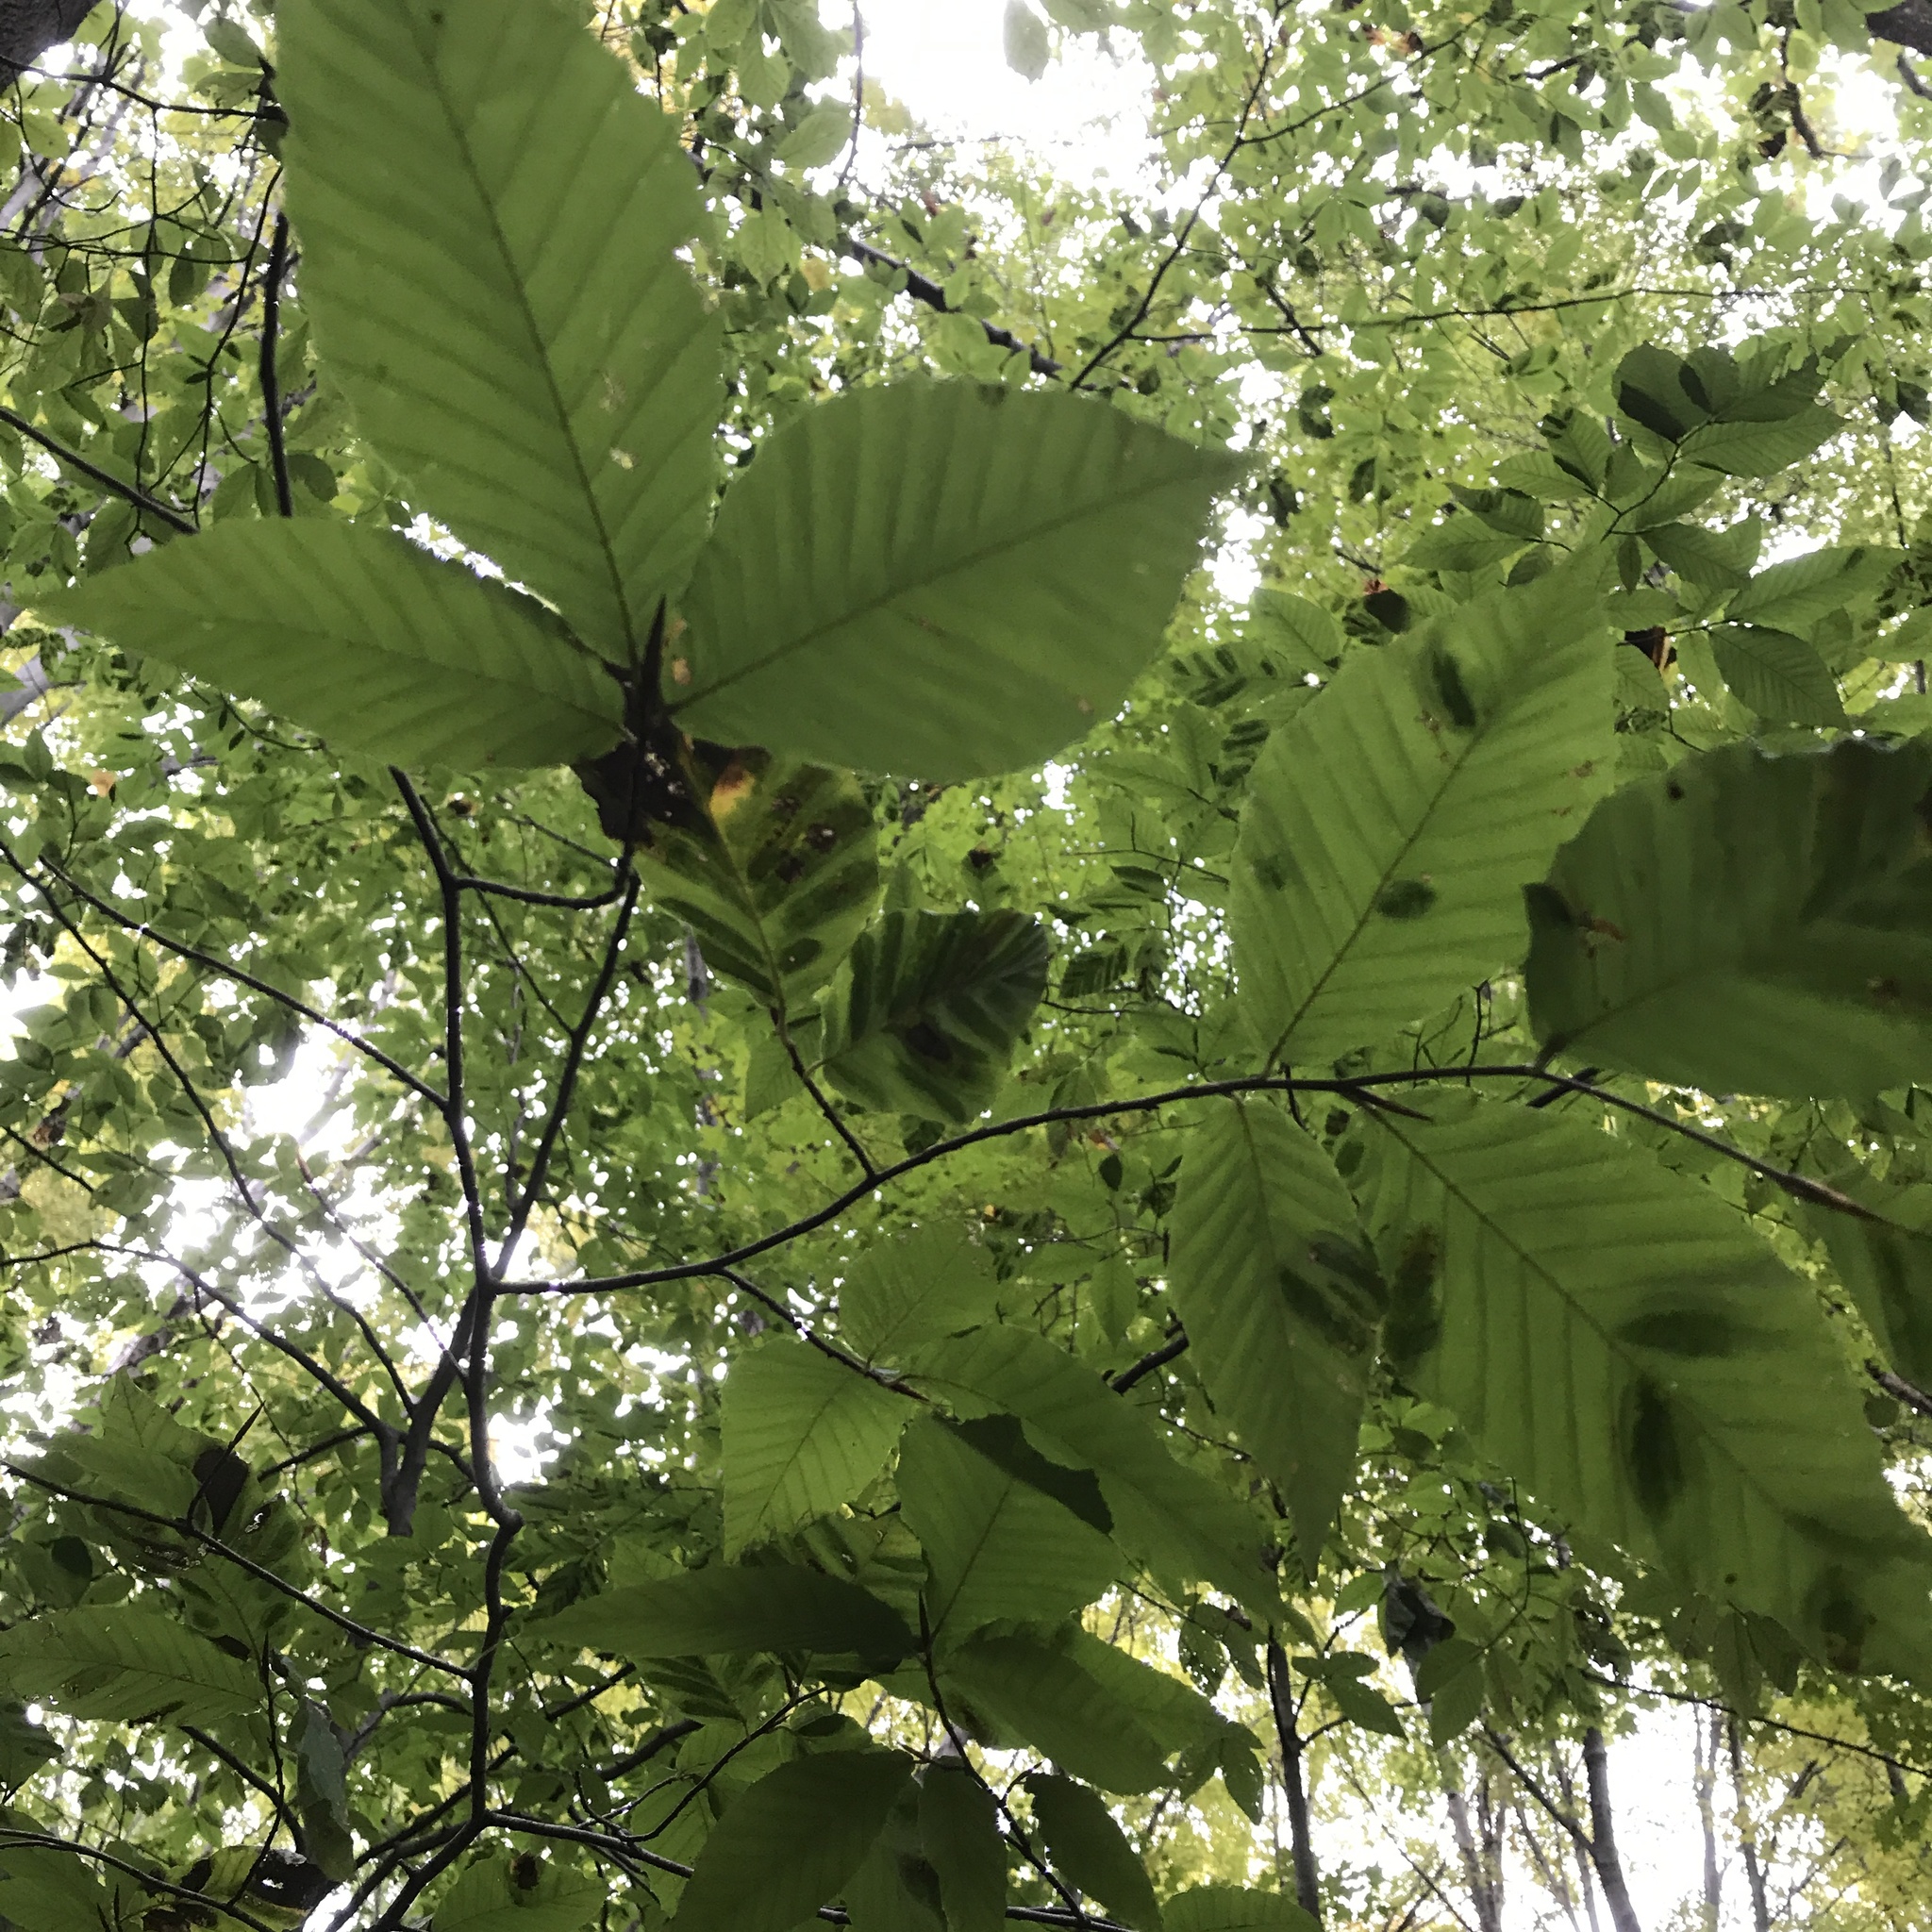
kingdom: Plantae
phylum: Tracheophyta
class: Magnoliopsida
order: Fagales
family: Fagaceae
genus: Fagus
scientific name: Fagus grandifolia
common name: American beech
